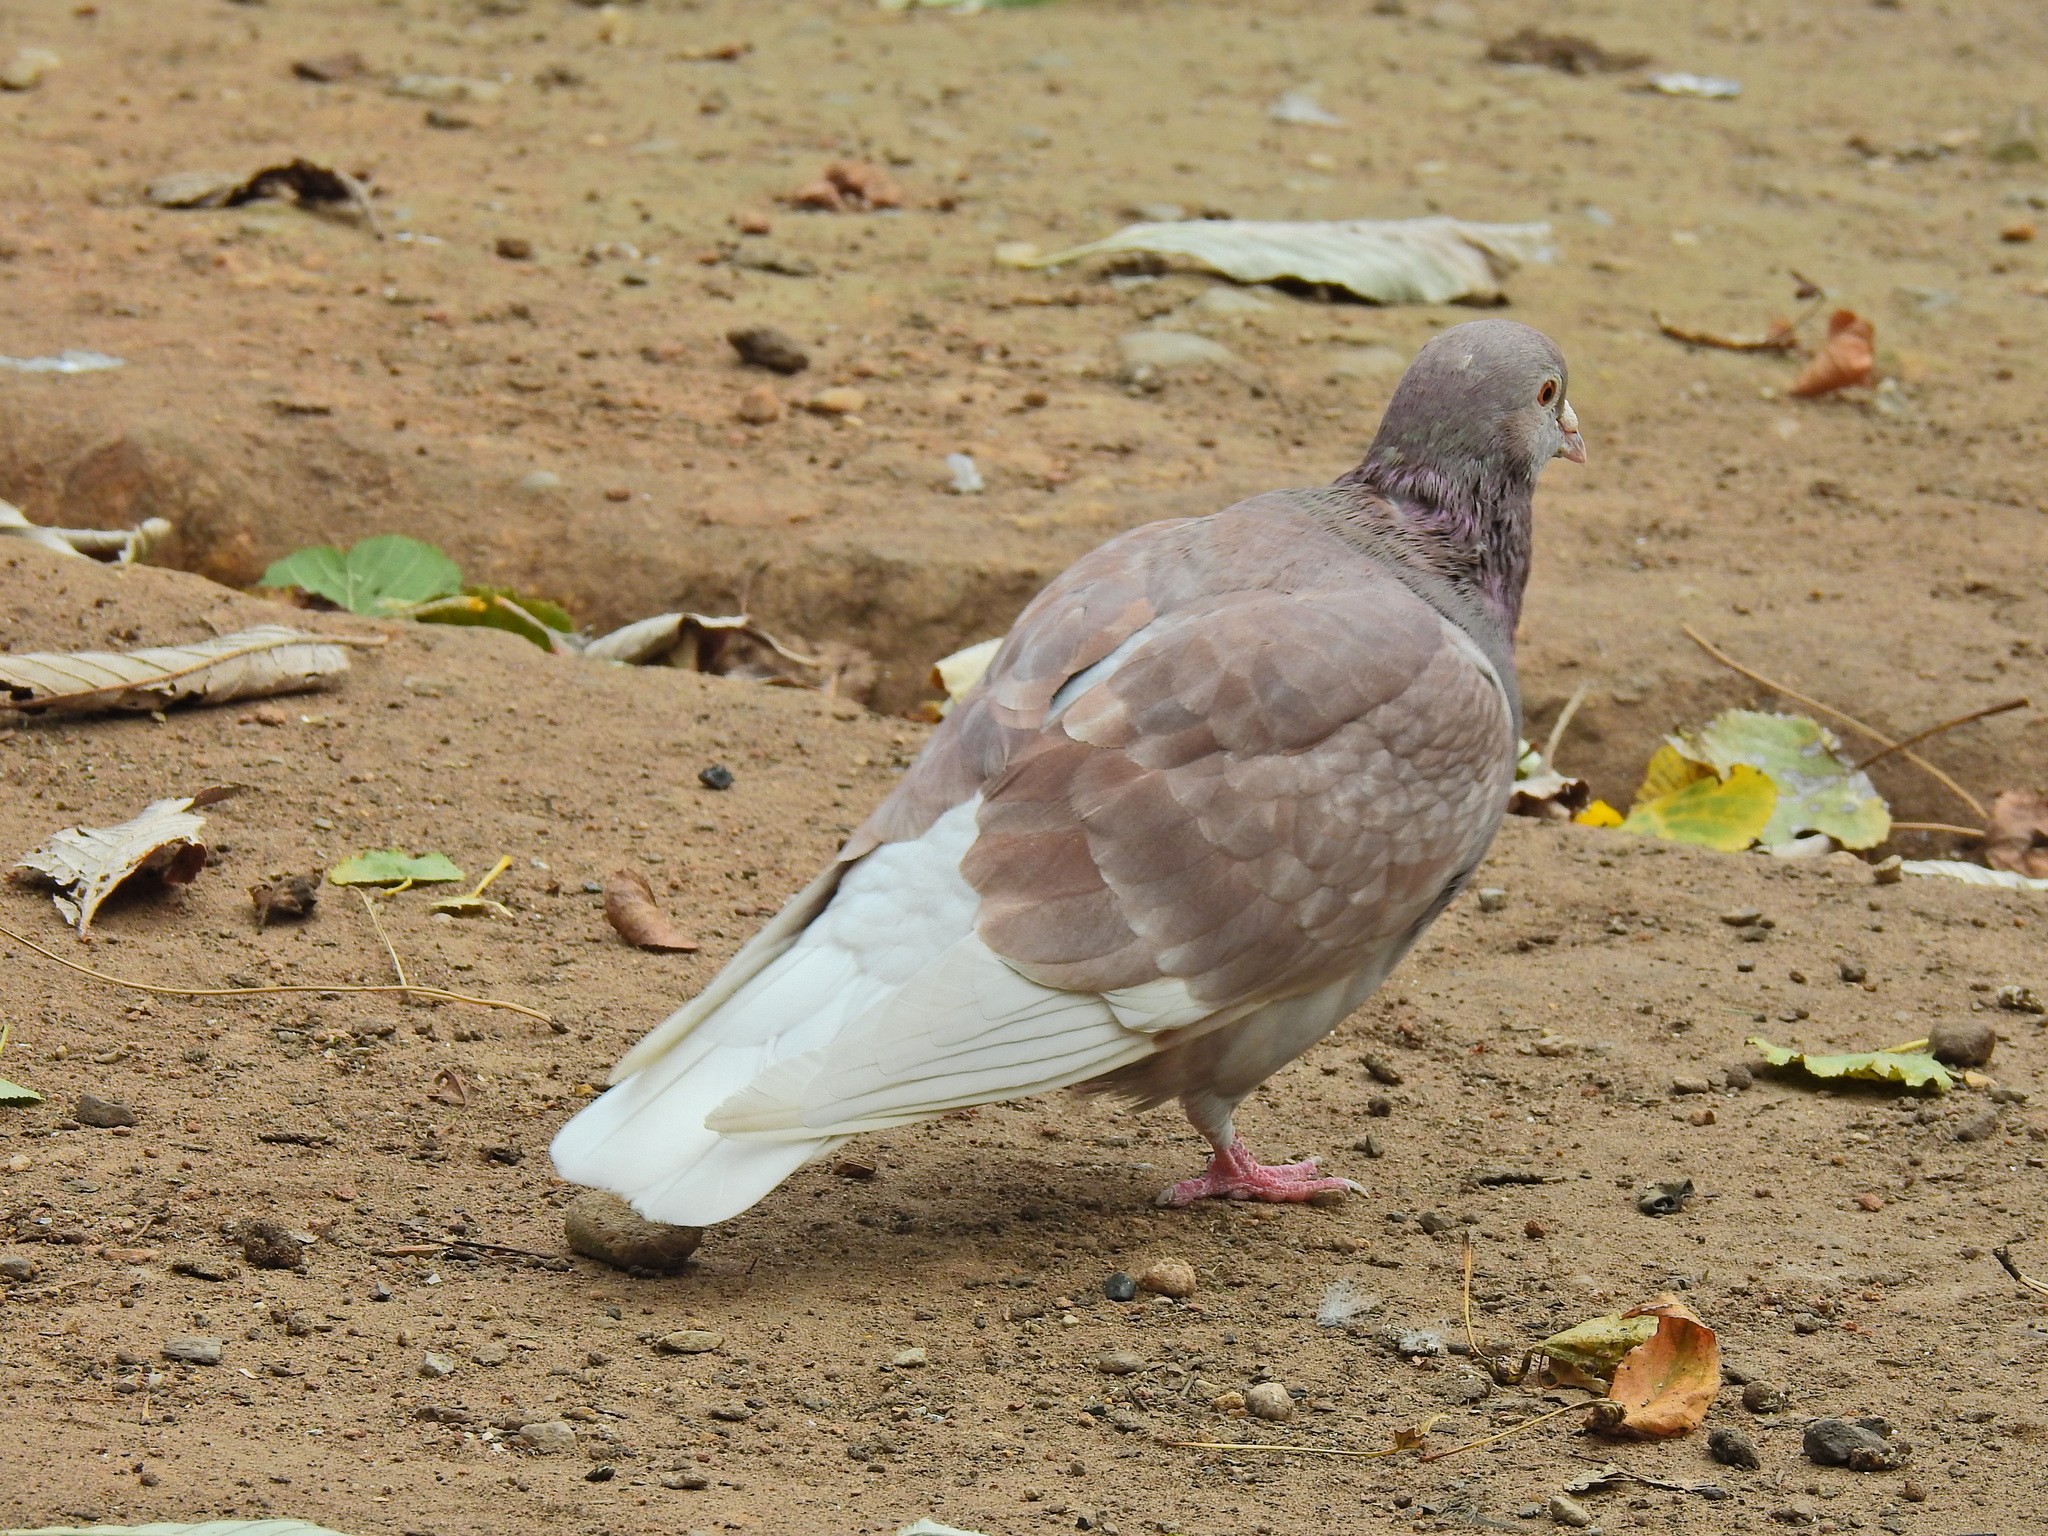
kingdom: Animalia
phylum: Chordata
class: Aves
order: Columbiformes
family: Columbidae
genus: Columba
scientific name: Columba livia
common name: Rock pigeon
